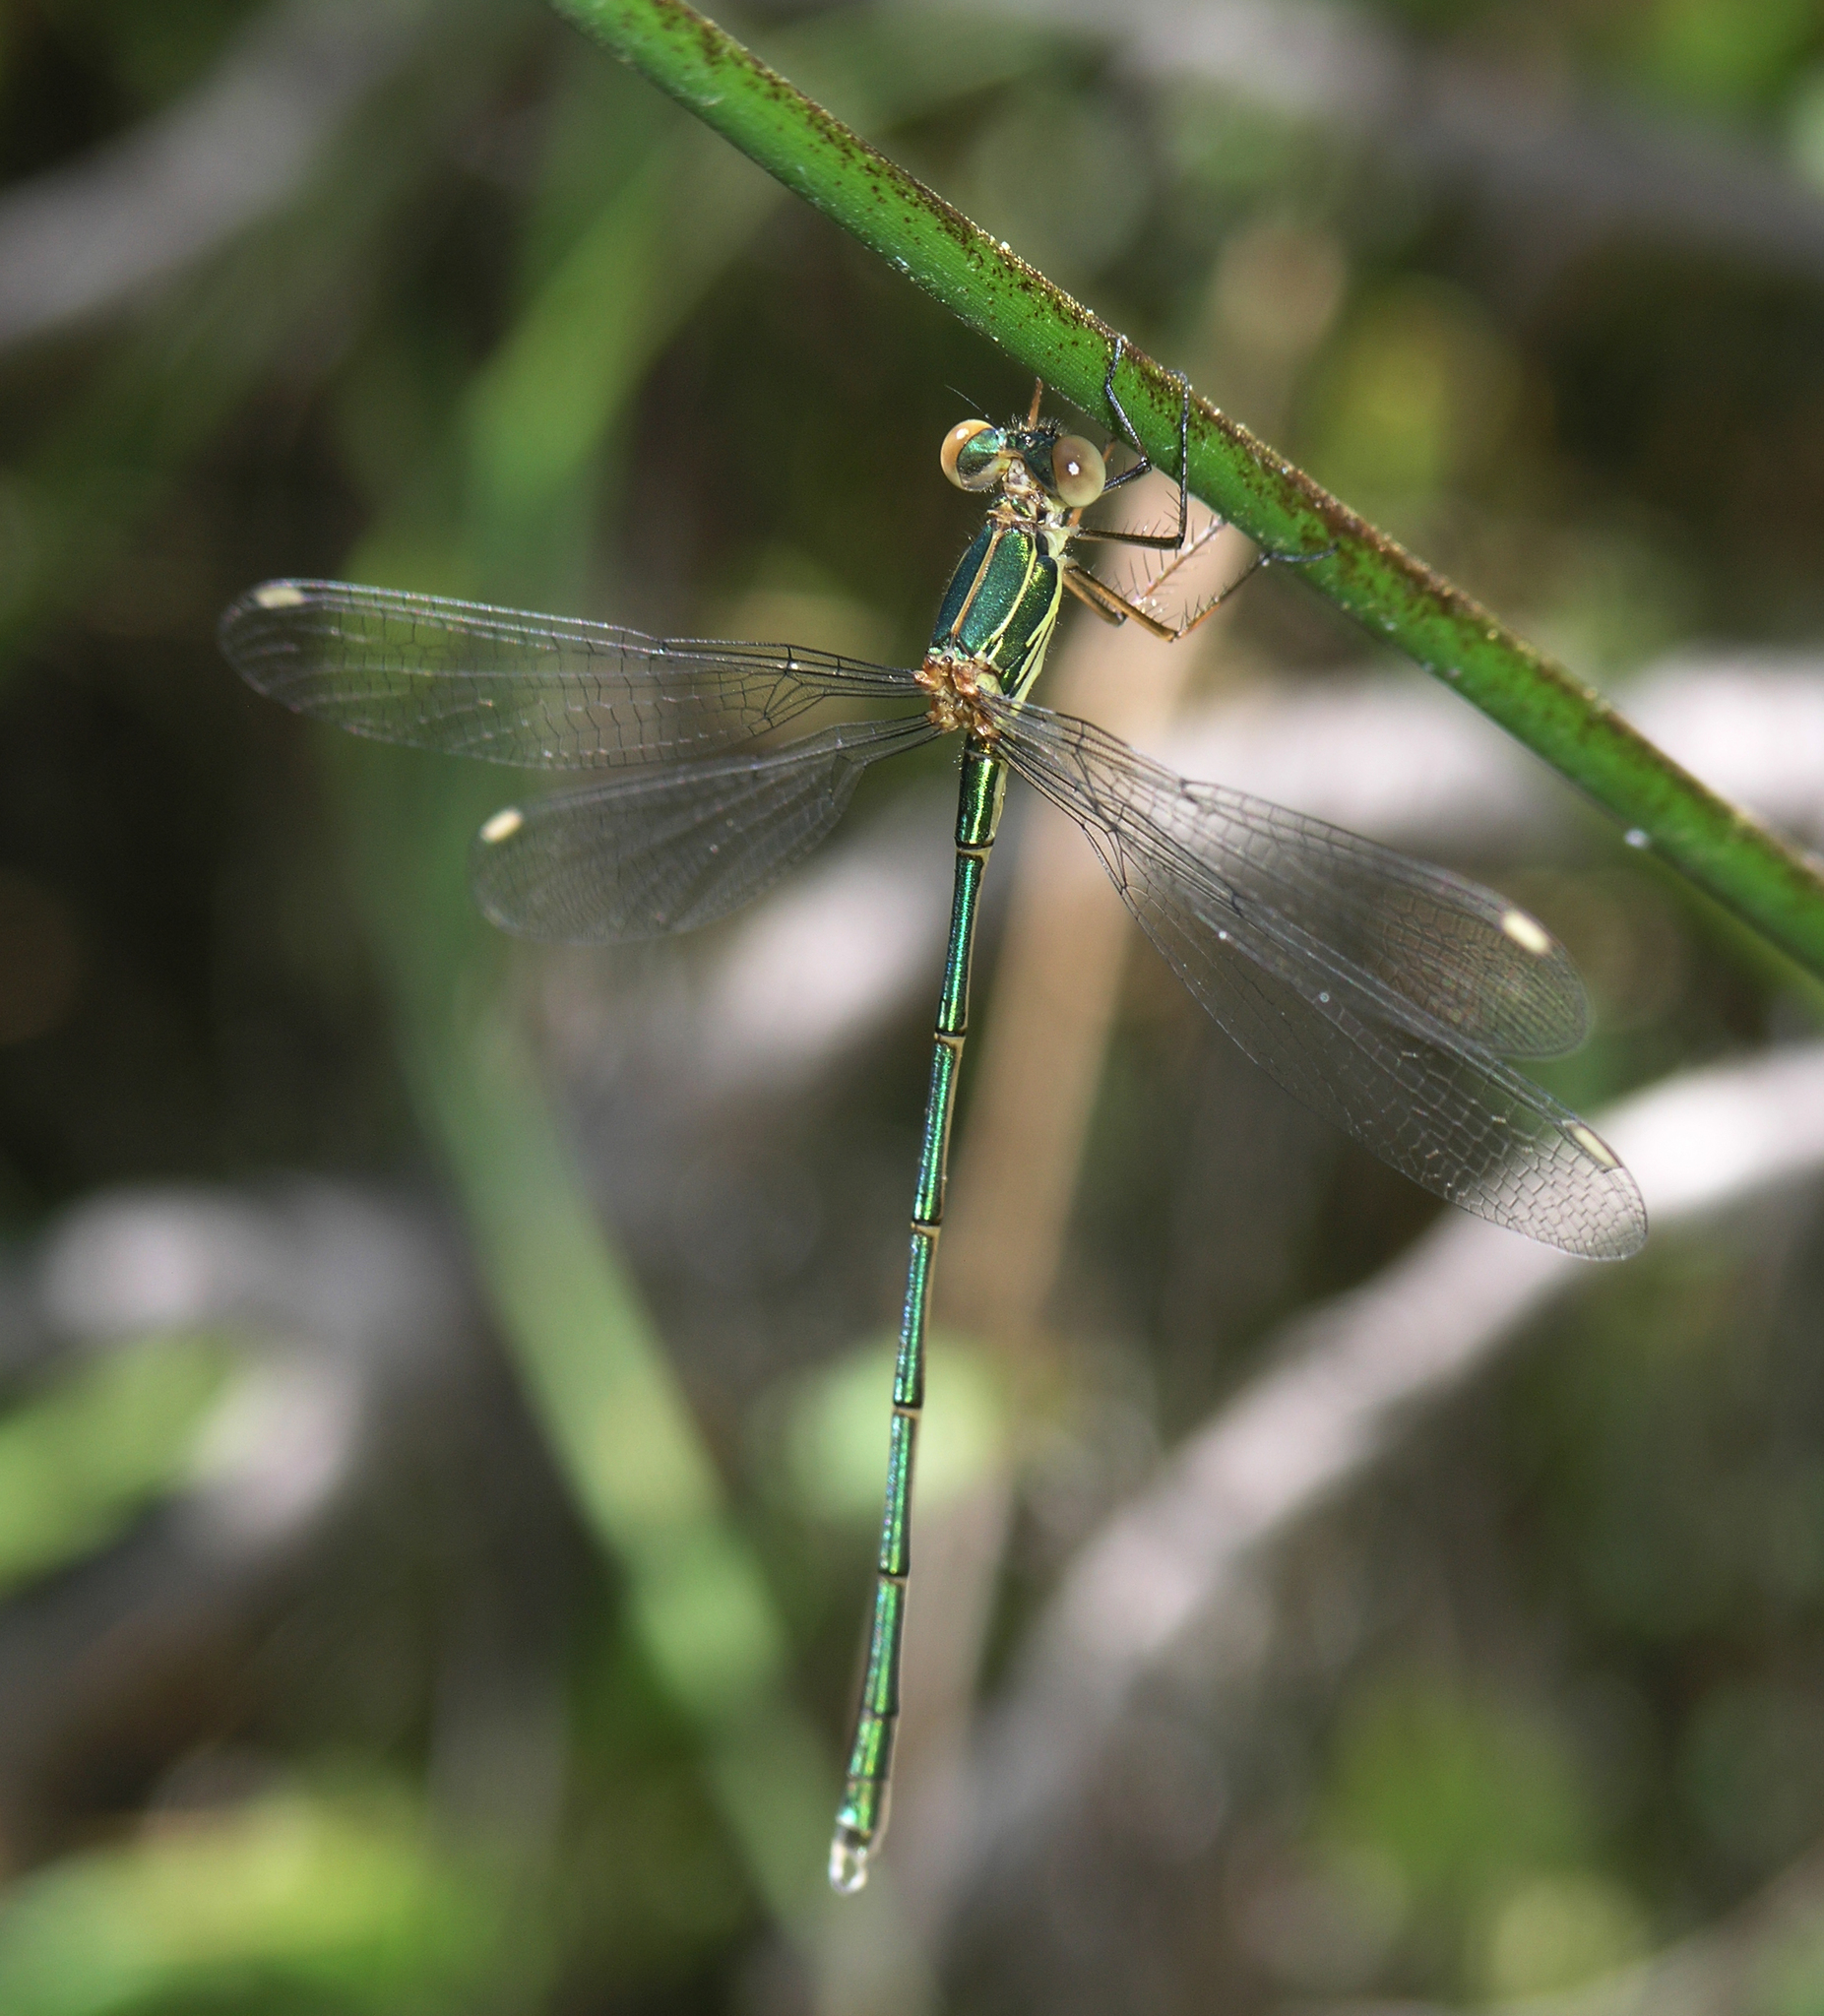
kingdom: Animalia
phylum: Arthropoda
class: Insecta
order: Odonata
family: Lestidae
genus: Chalcolestes
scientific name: Chalcolestes viridis
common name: Green emerald damselfly
